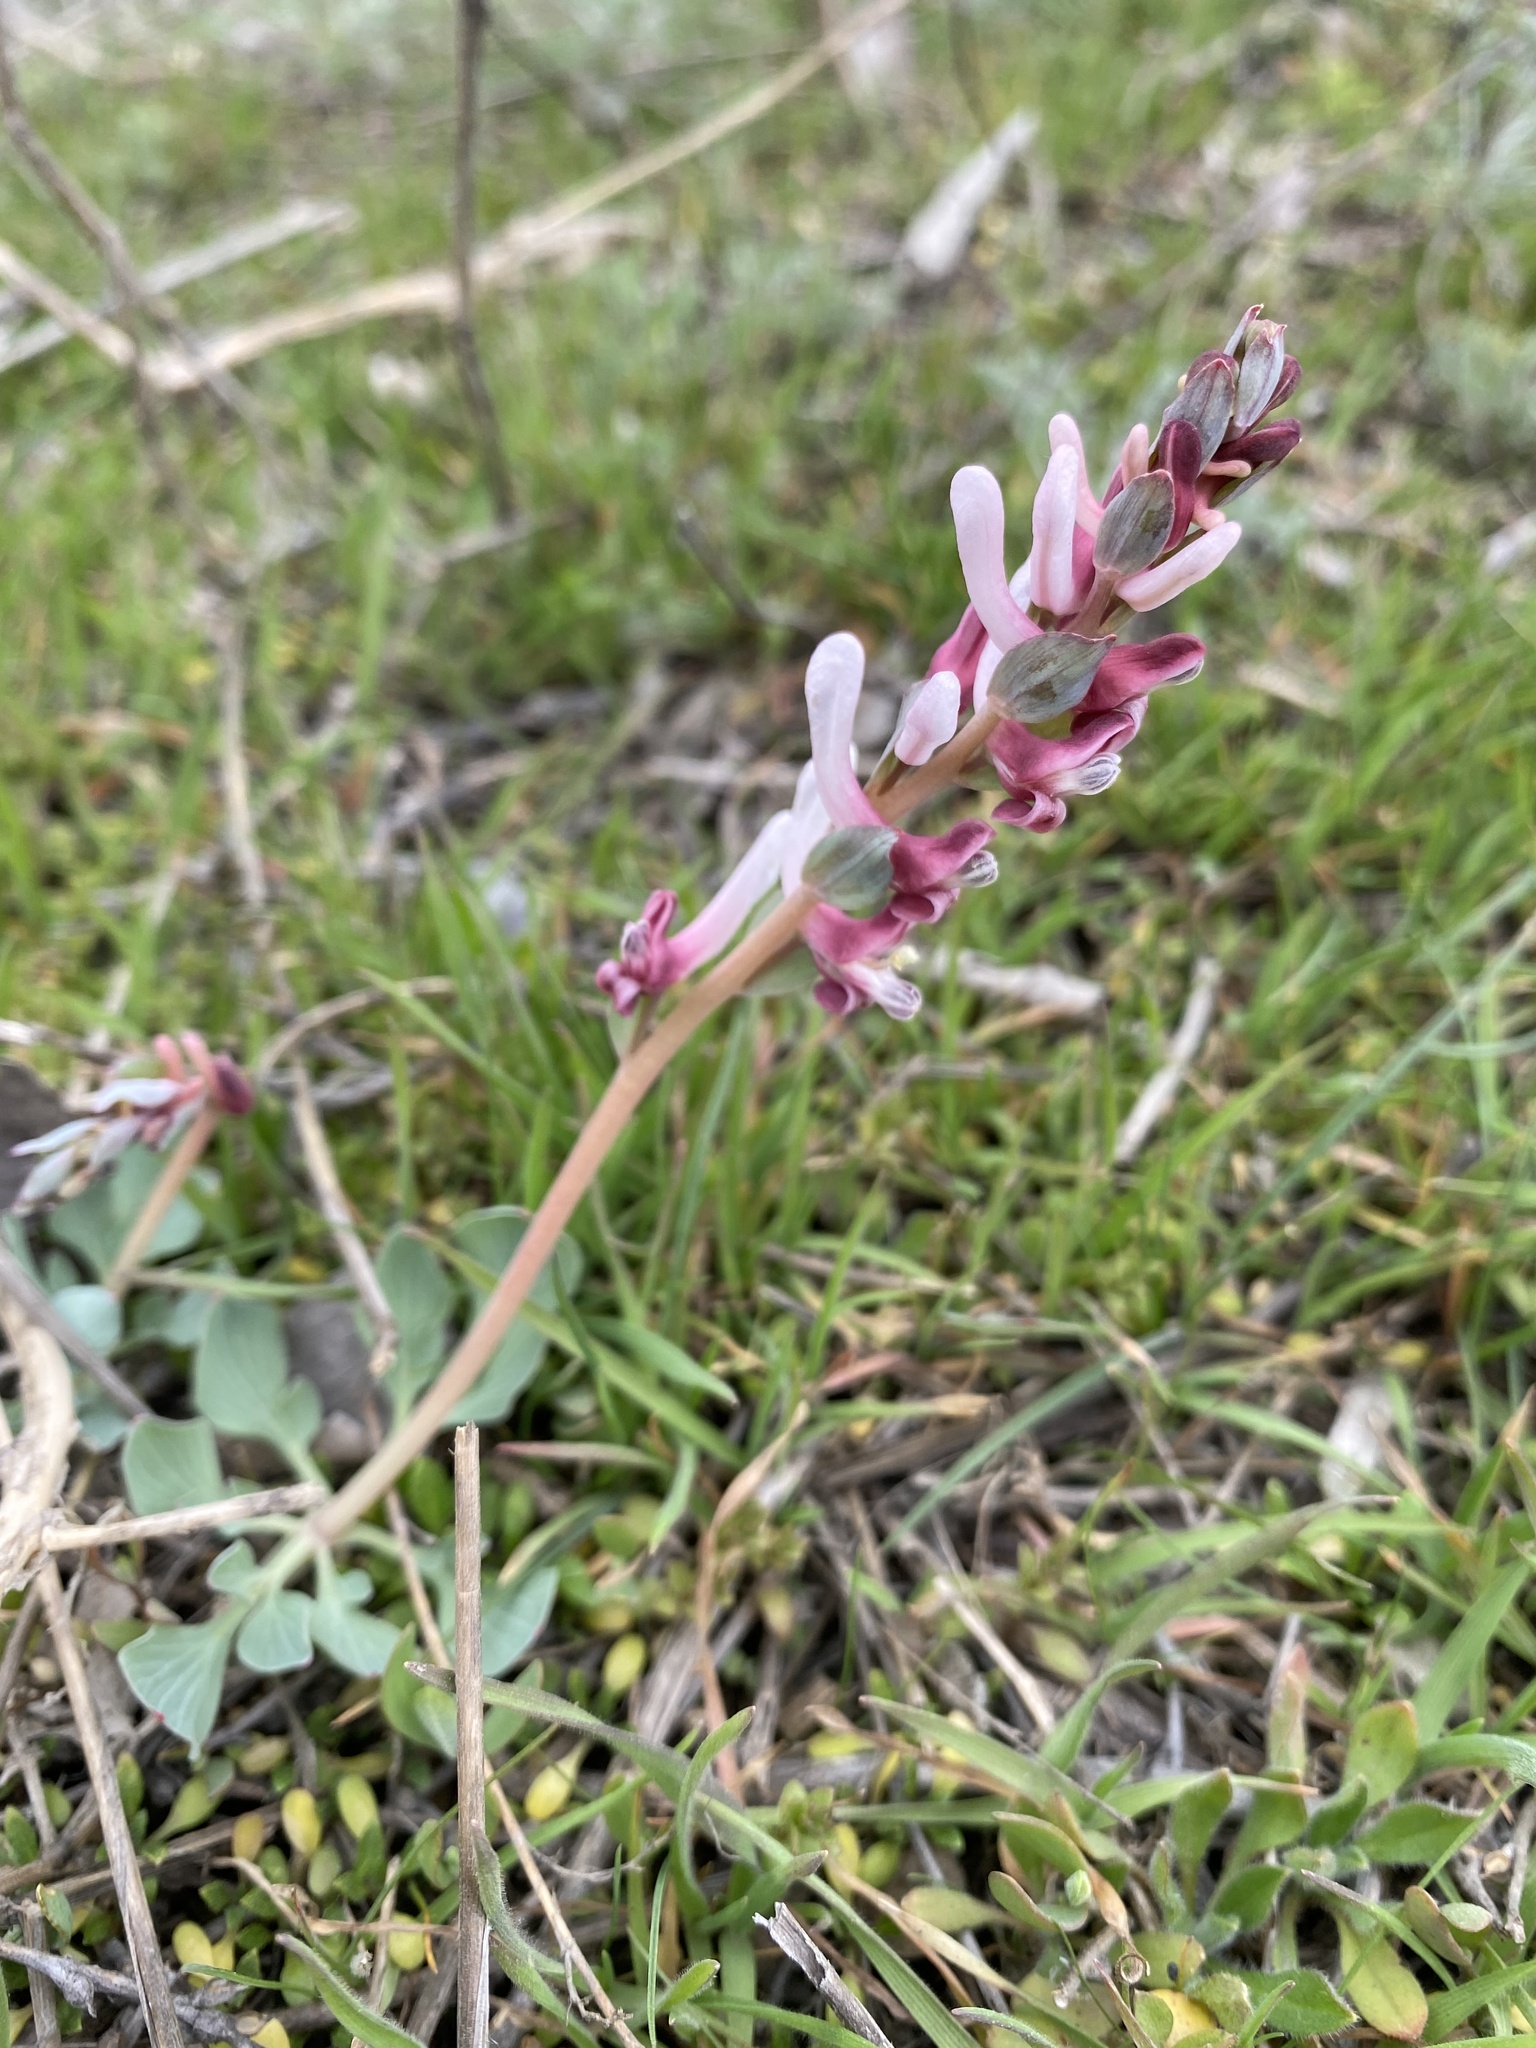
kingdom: Plantae
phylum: Tracheophyta
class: Magnoliopsida
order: Ranunculales
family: Papaveraceae
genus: Corydalis
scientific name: Corydalis ledebouriana
